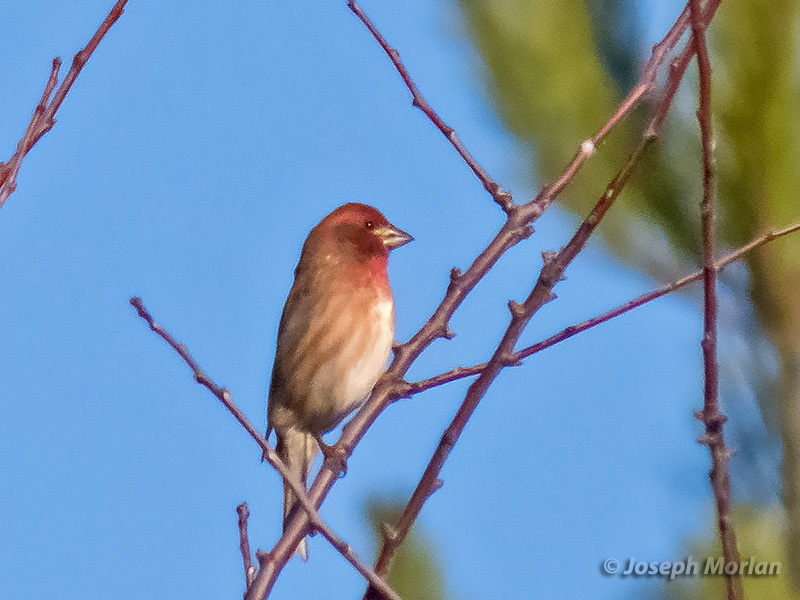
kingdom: Animalia
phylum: Chordata
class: Aves
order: Passeriformes
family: Fringillidae
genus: Haemorhous
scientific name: Haemorhous purpureus
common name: Purple finch
